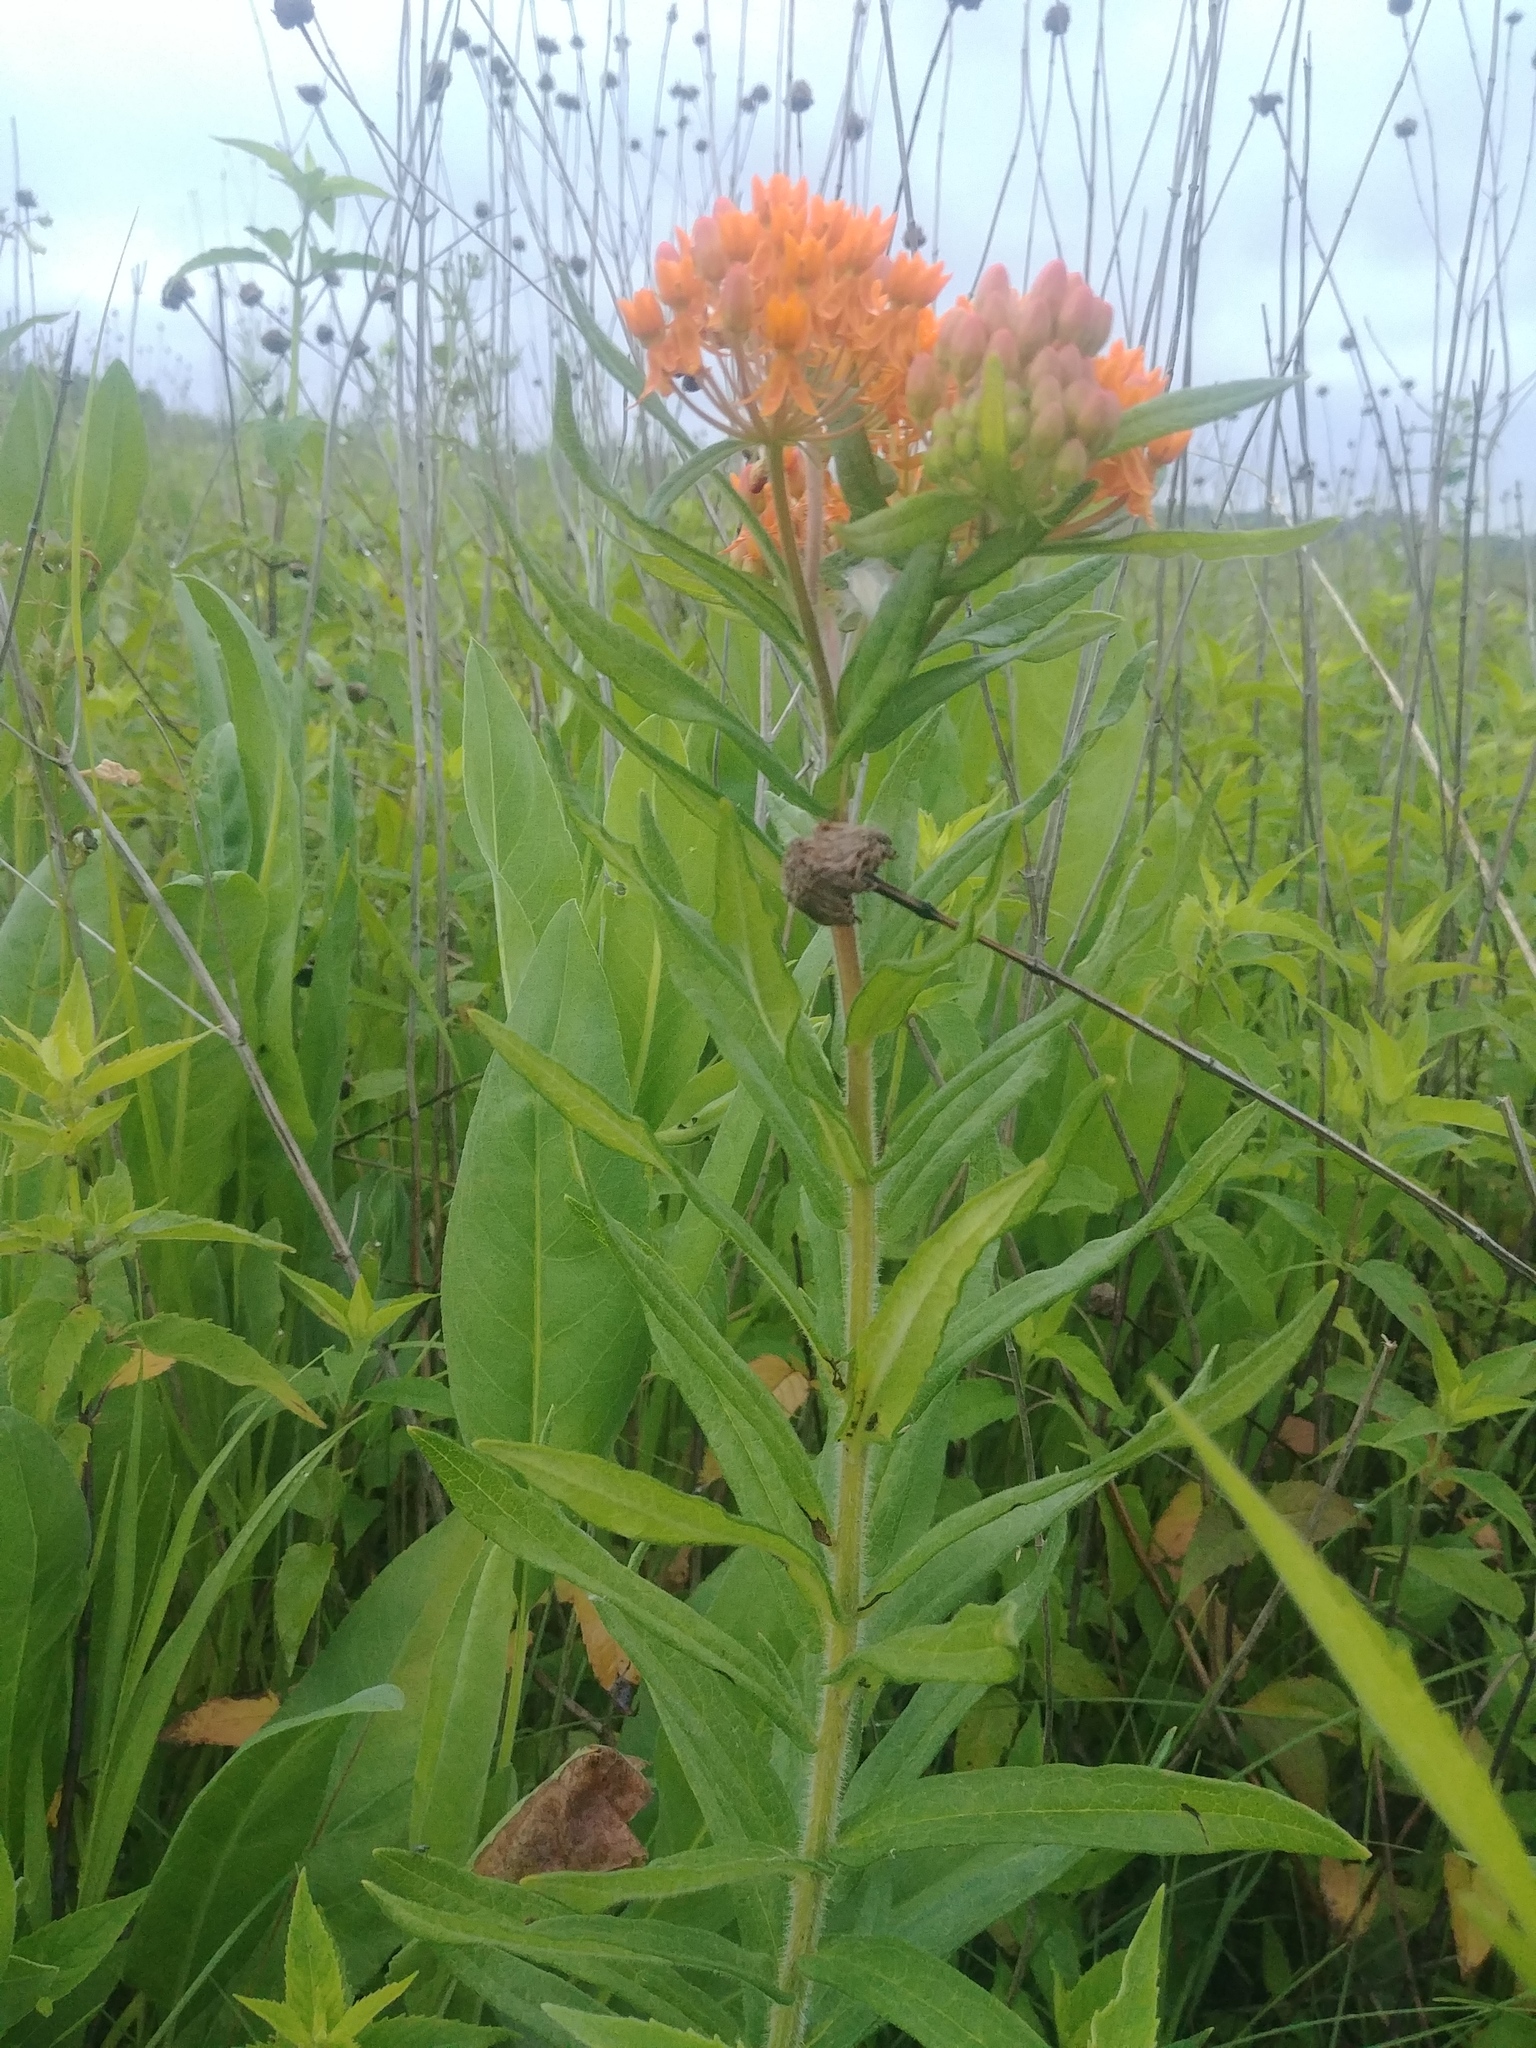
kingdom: Plantae
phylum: Tracheophyta
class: Magnoliopsida
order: Gentianales
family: Apocynaceae
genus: Asclepias
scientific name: Asclepias tuberosa
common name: Butterfly milkweed
